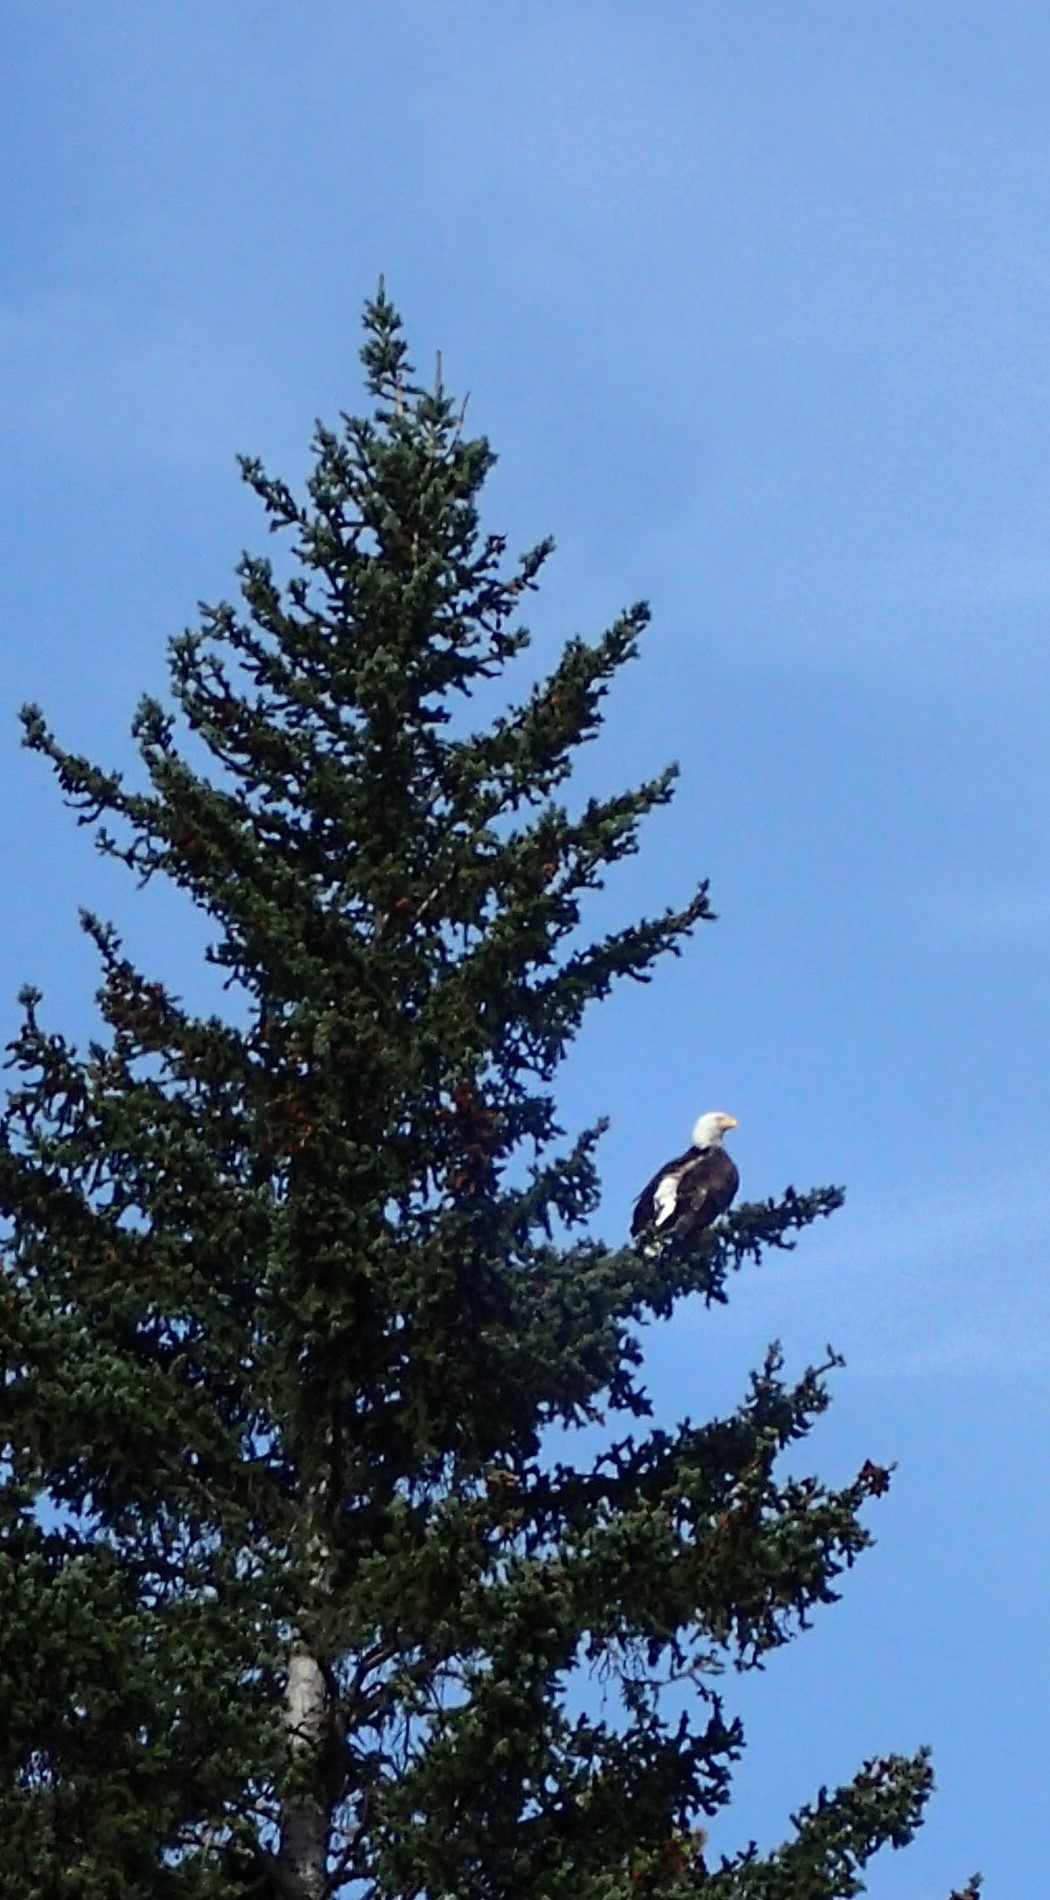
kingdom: Animalia
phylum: Chordata
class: Aves
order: Accipitriformes
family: Accipitridae
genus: Haliaeetus
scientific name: Haliaeetus leucocephalus
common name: Bald eagle
